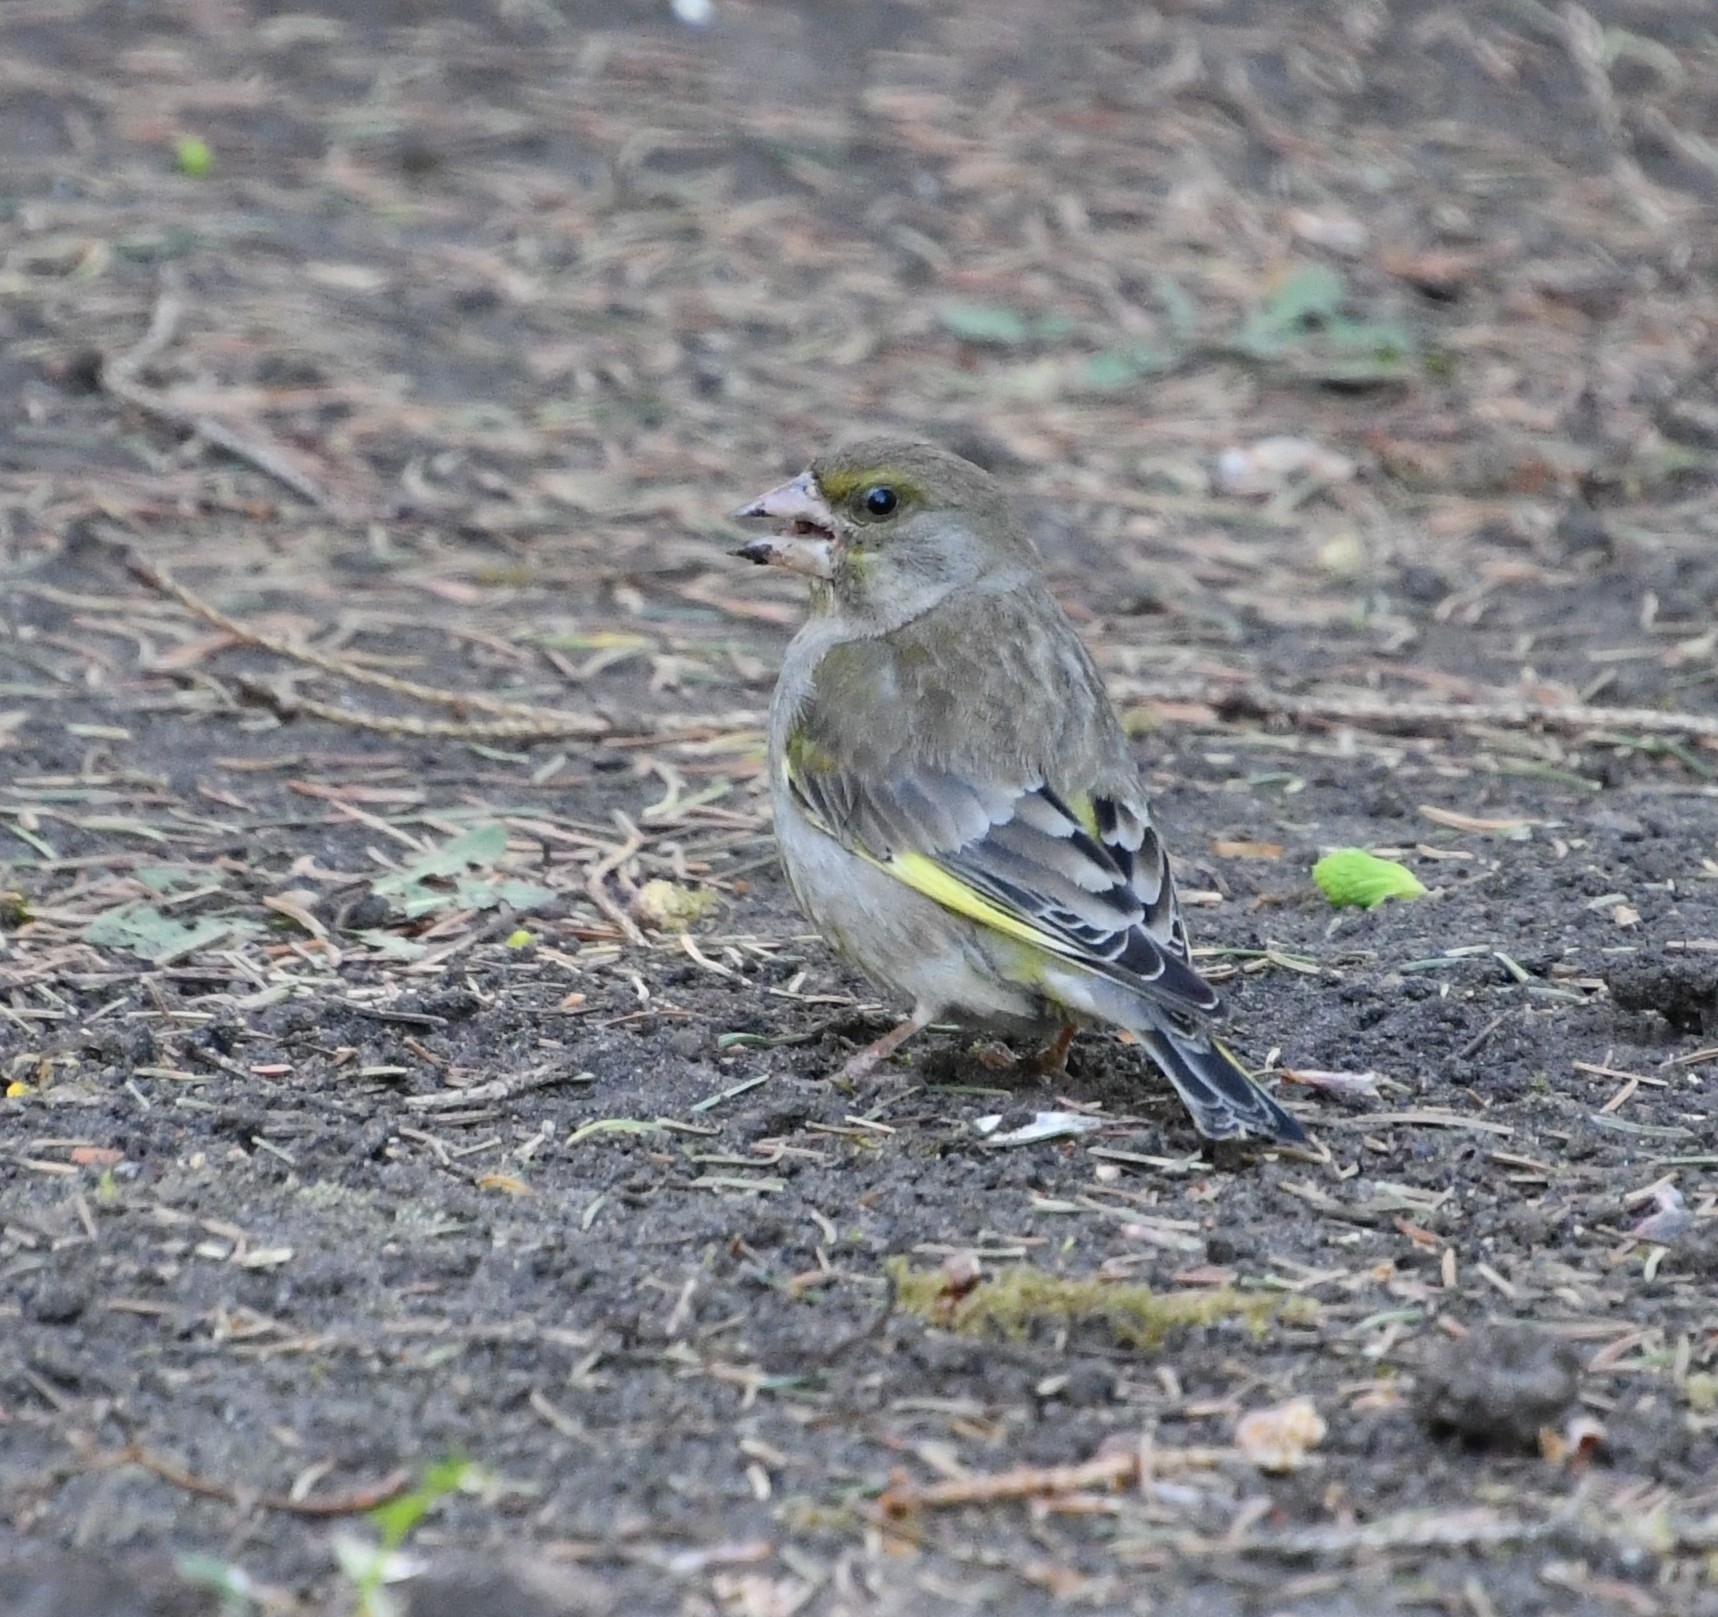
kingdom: Plantae
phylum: Tracheophyta
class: Liliopsida
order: Poales
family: Poaceae
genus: Chloris
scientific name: Chloris chloris
